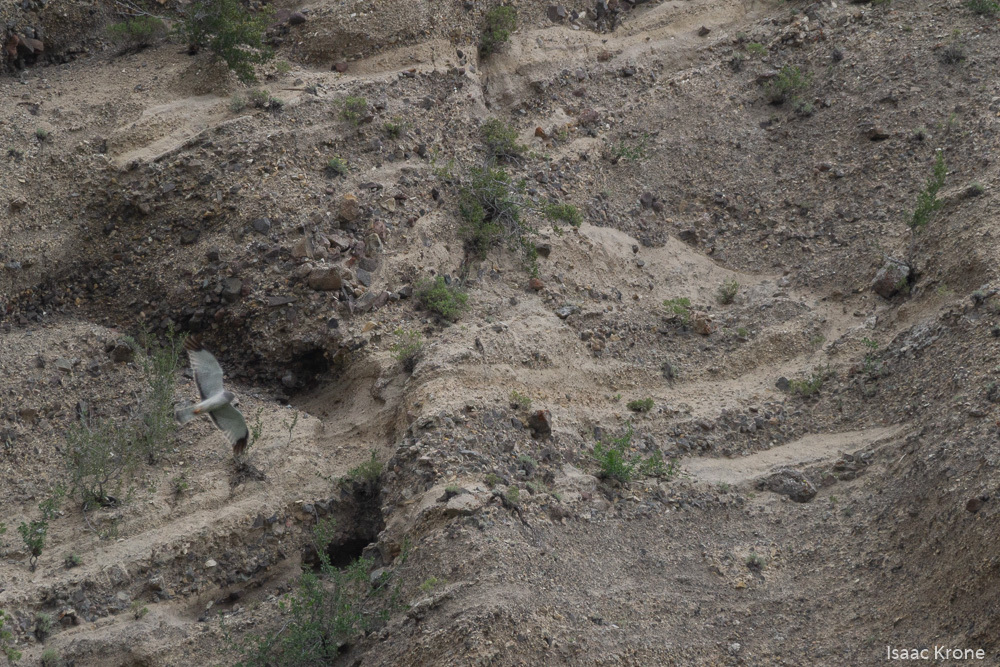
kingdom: Animalia
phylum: Chordata
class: Aves
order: Accipitriformes
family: Accipitridae
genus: Circus
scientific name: Circus cyaneus
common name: Hen harrier
